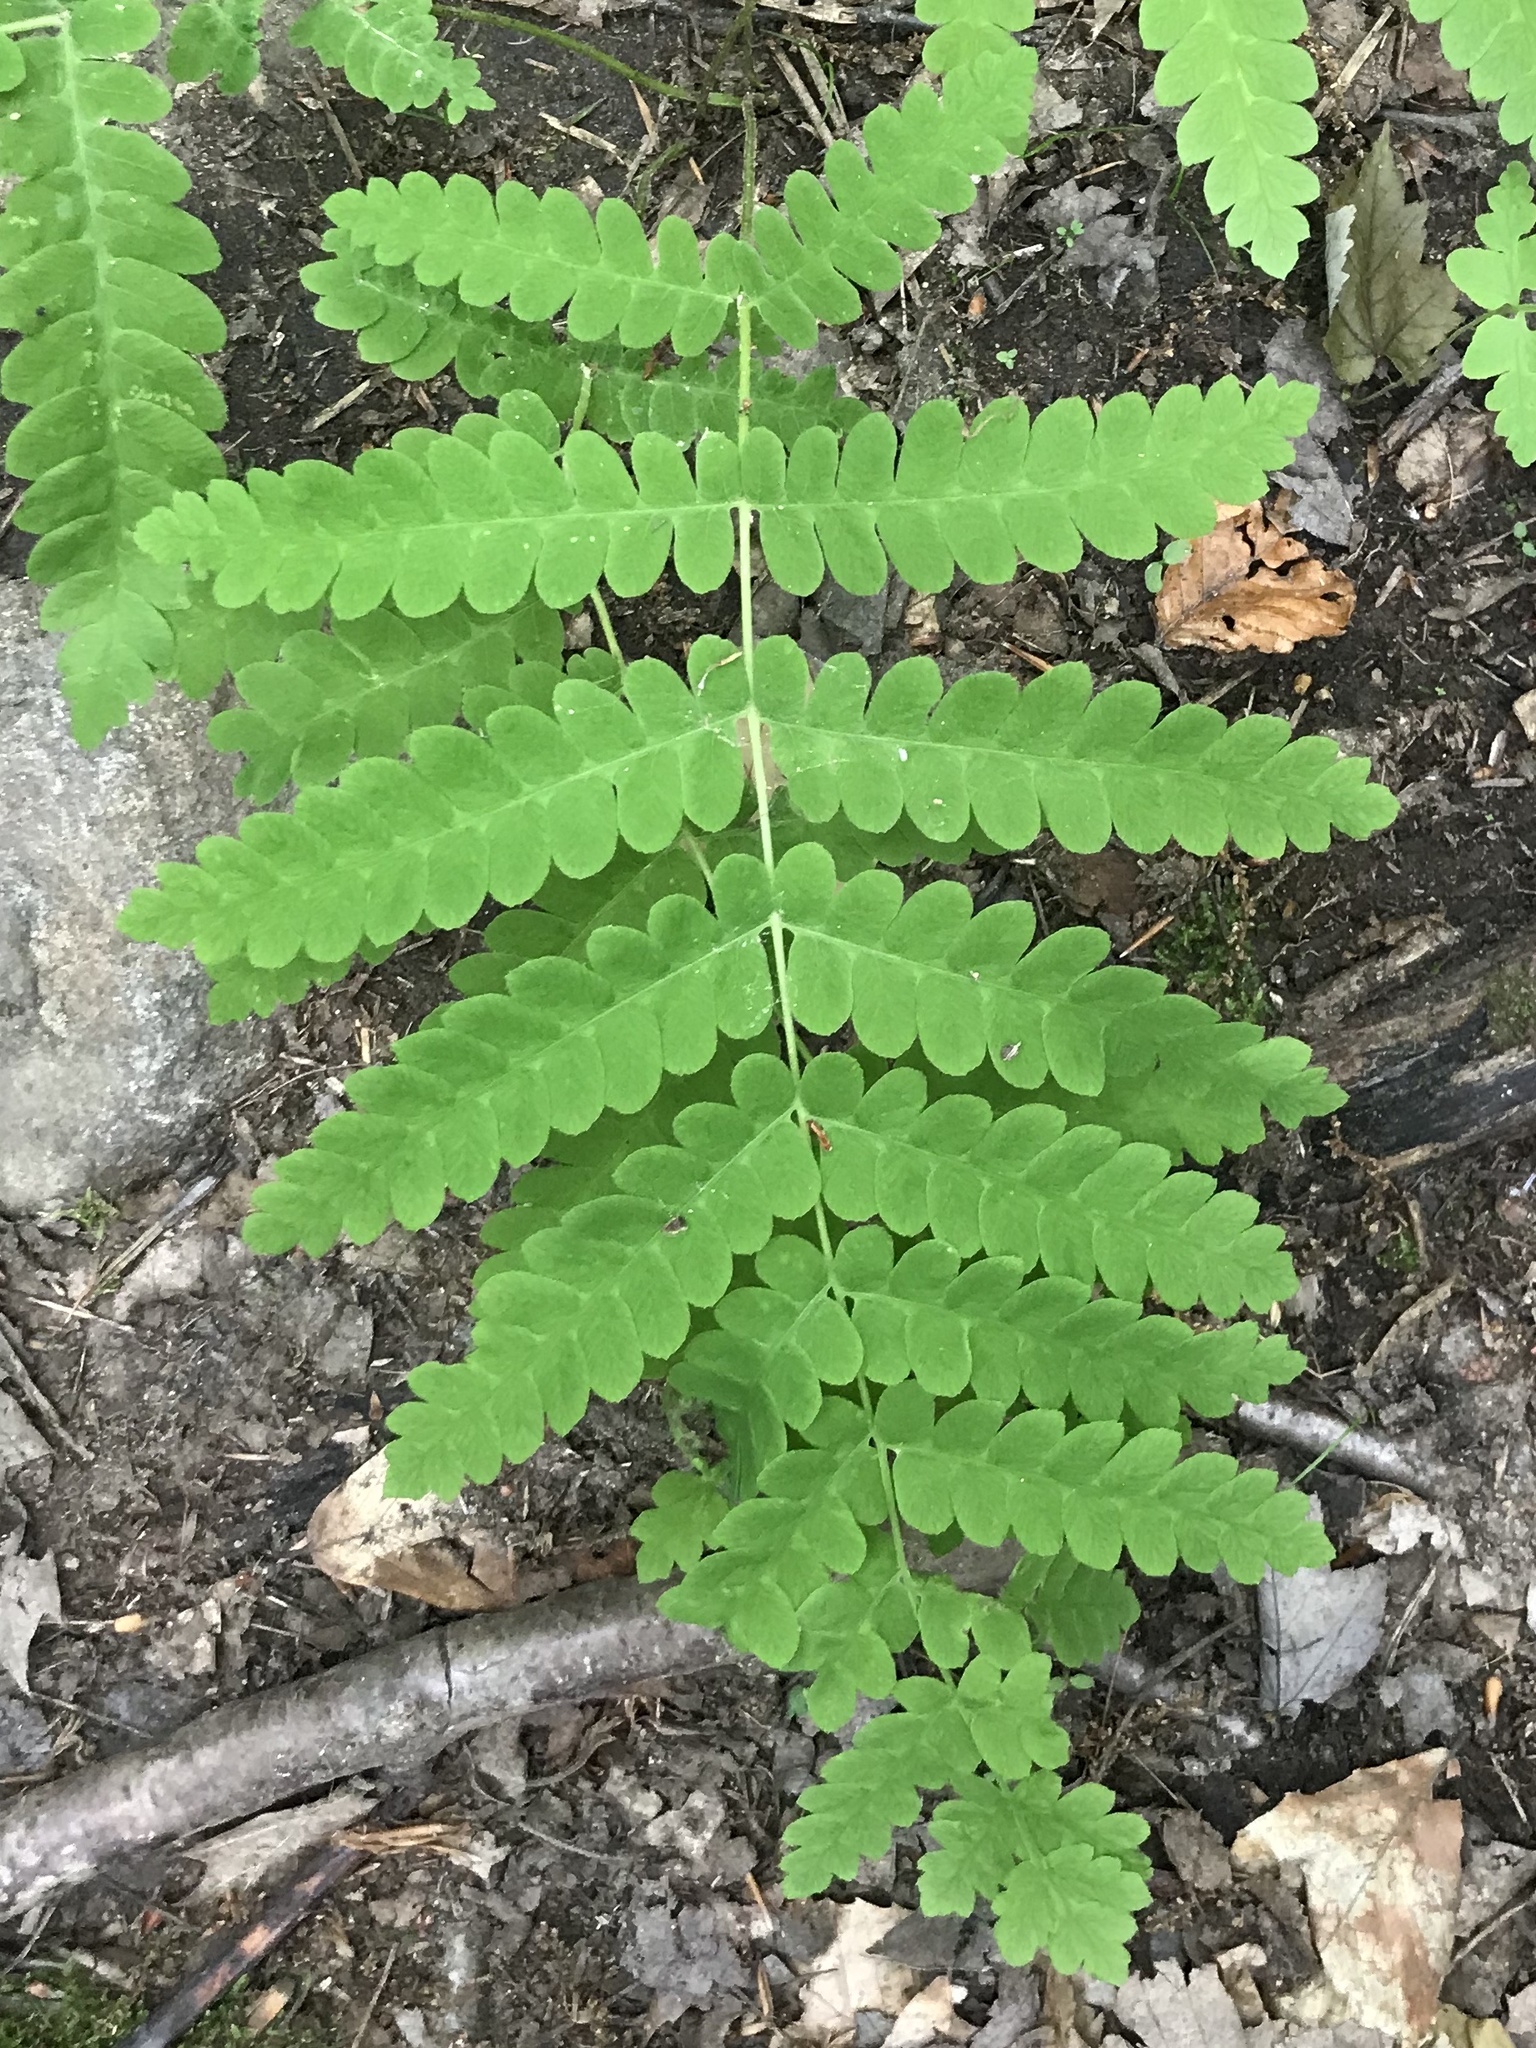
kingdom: Plantae
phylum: Tracheophyta
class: Polypodiopsida
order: Osmundales
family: Osmundaceae
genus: Claytosmunda
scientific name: Claytosmunda claytoniana
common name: Clayton's fern
